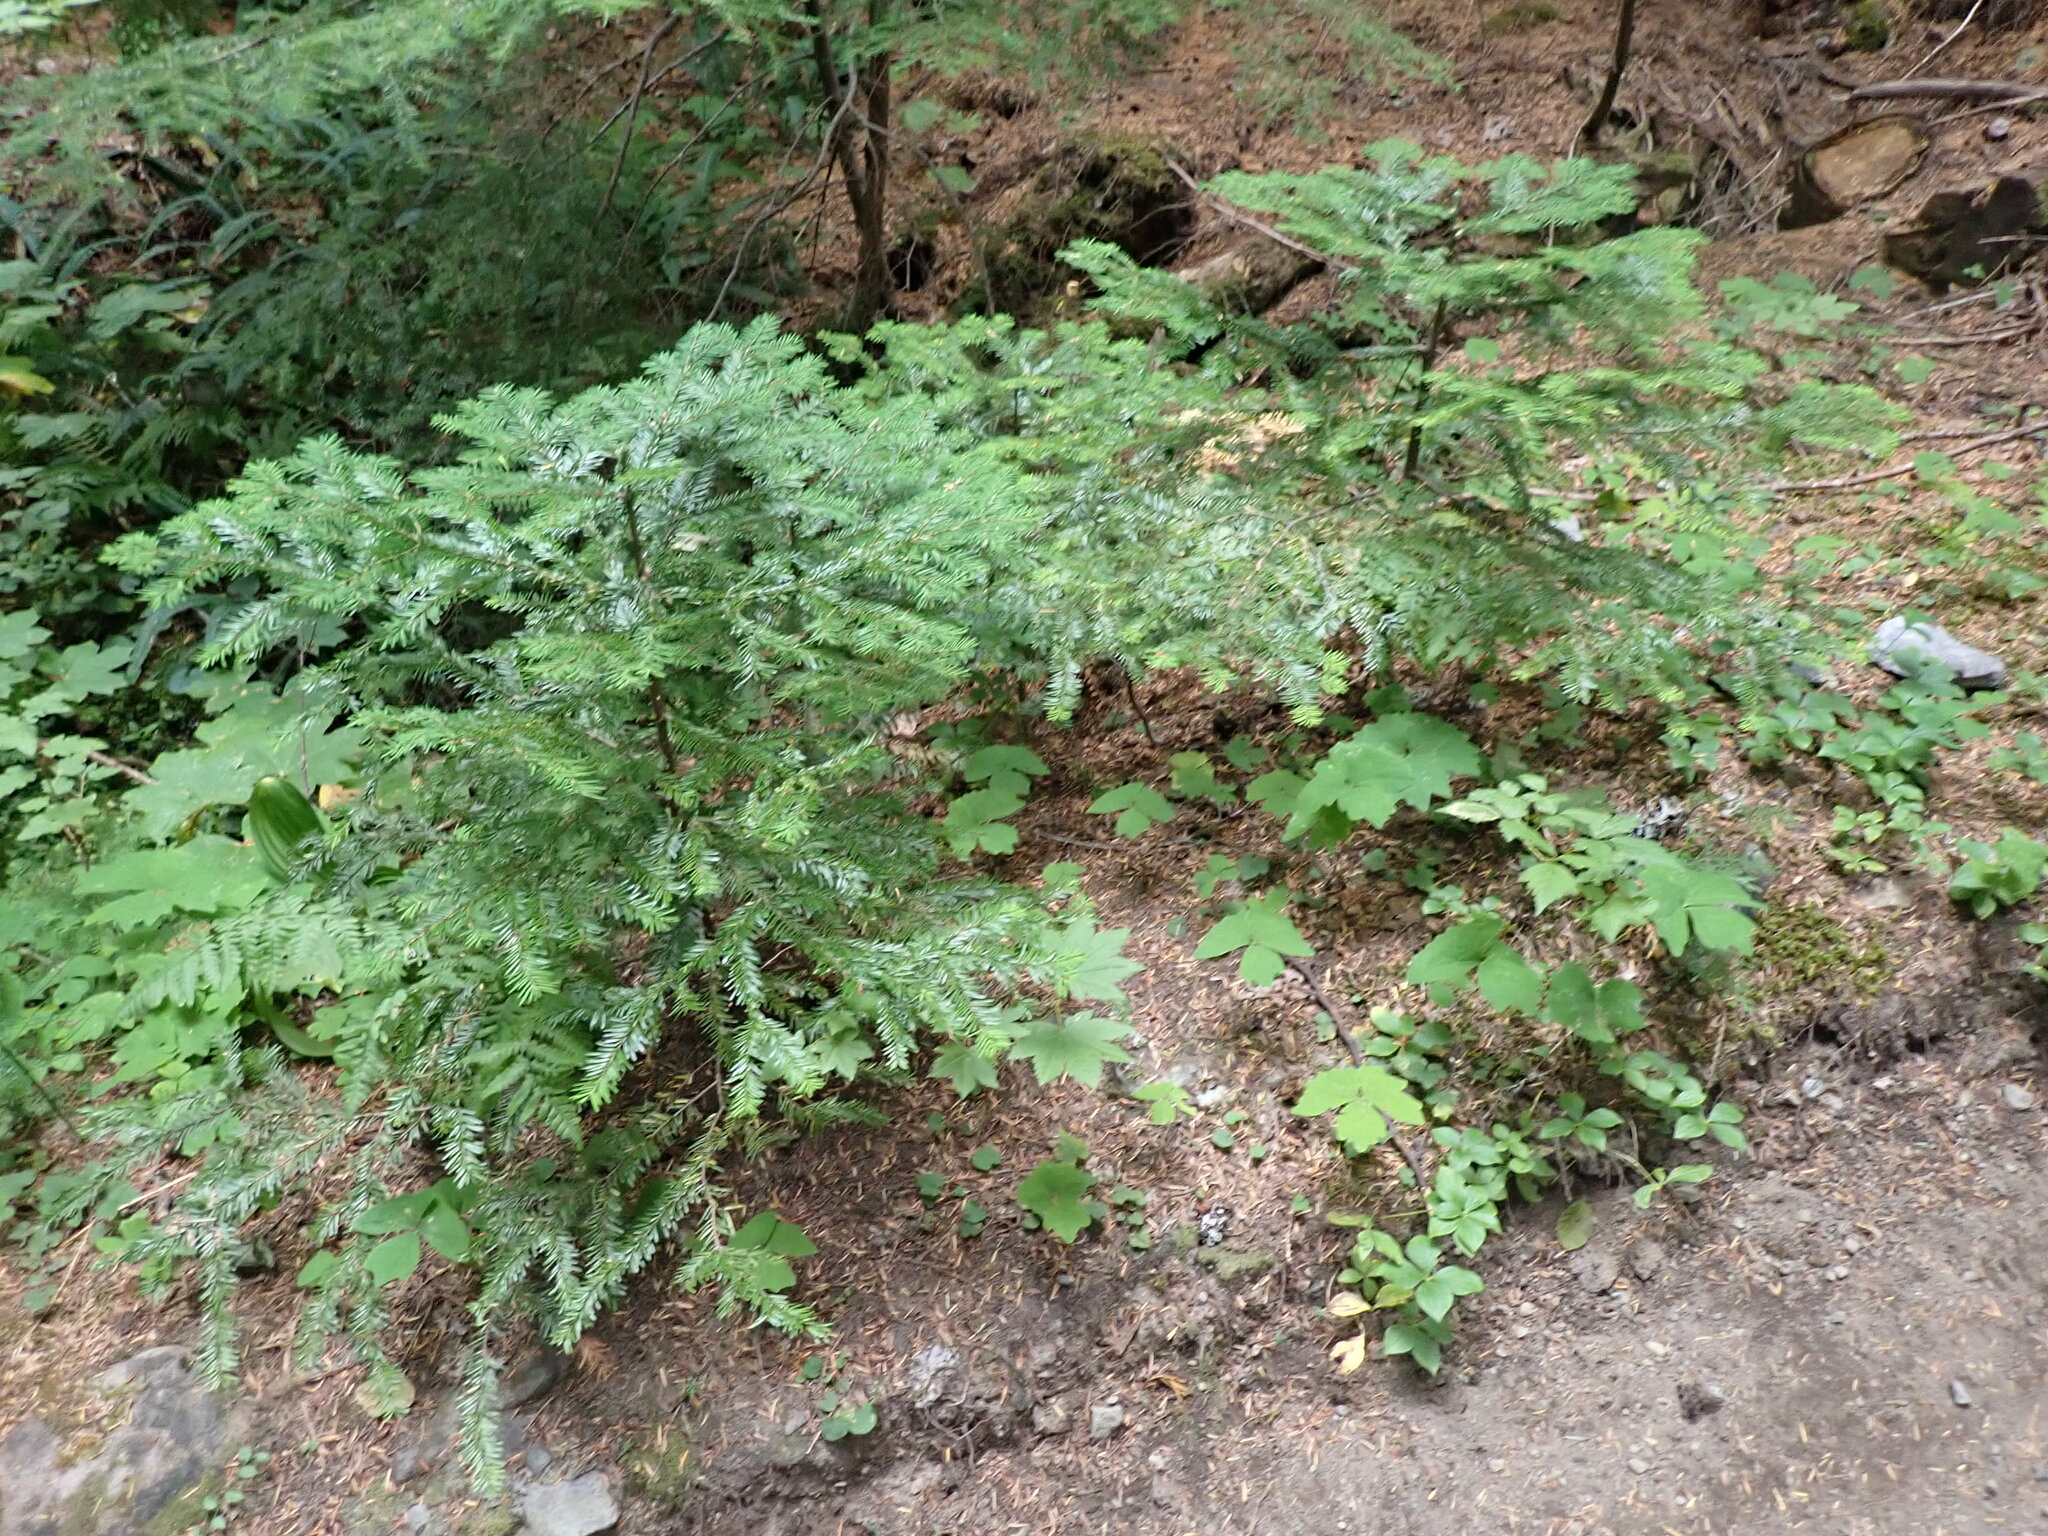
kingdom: Plantae
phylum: Tracheophyta
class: Pinopsida
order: Pinales
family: Pinaceae
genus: Abies
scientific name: Abies amabilis
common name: Pacific silver fir
